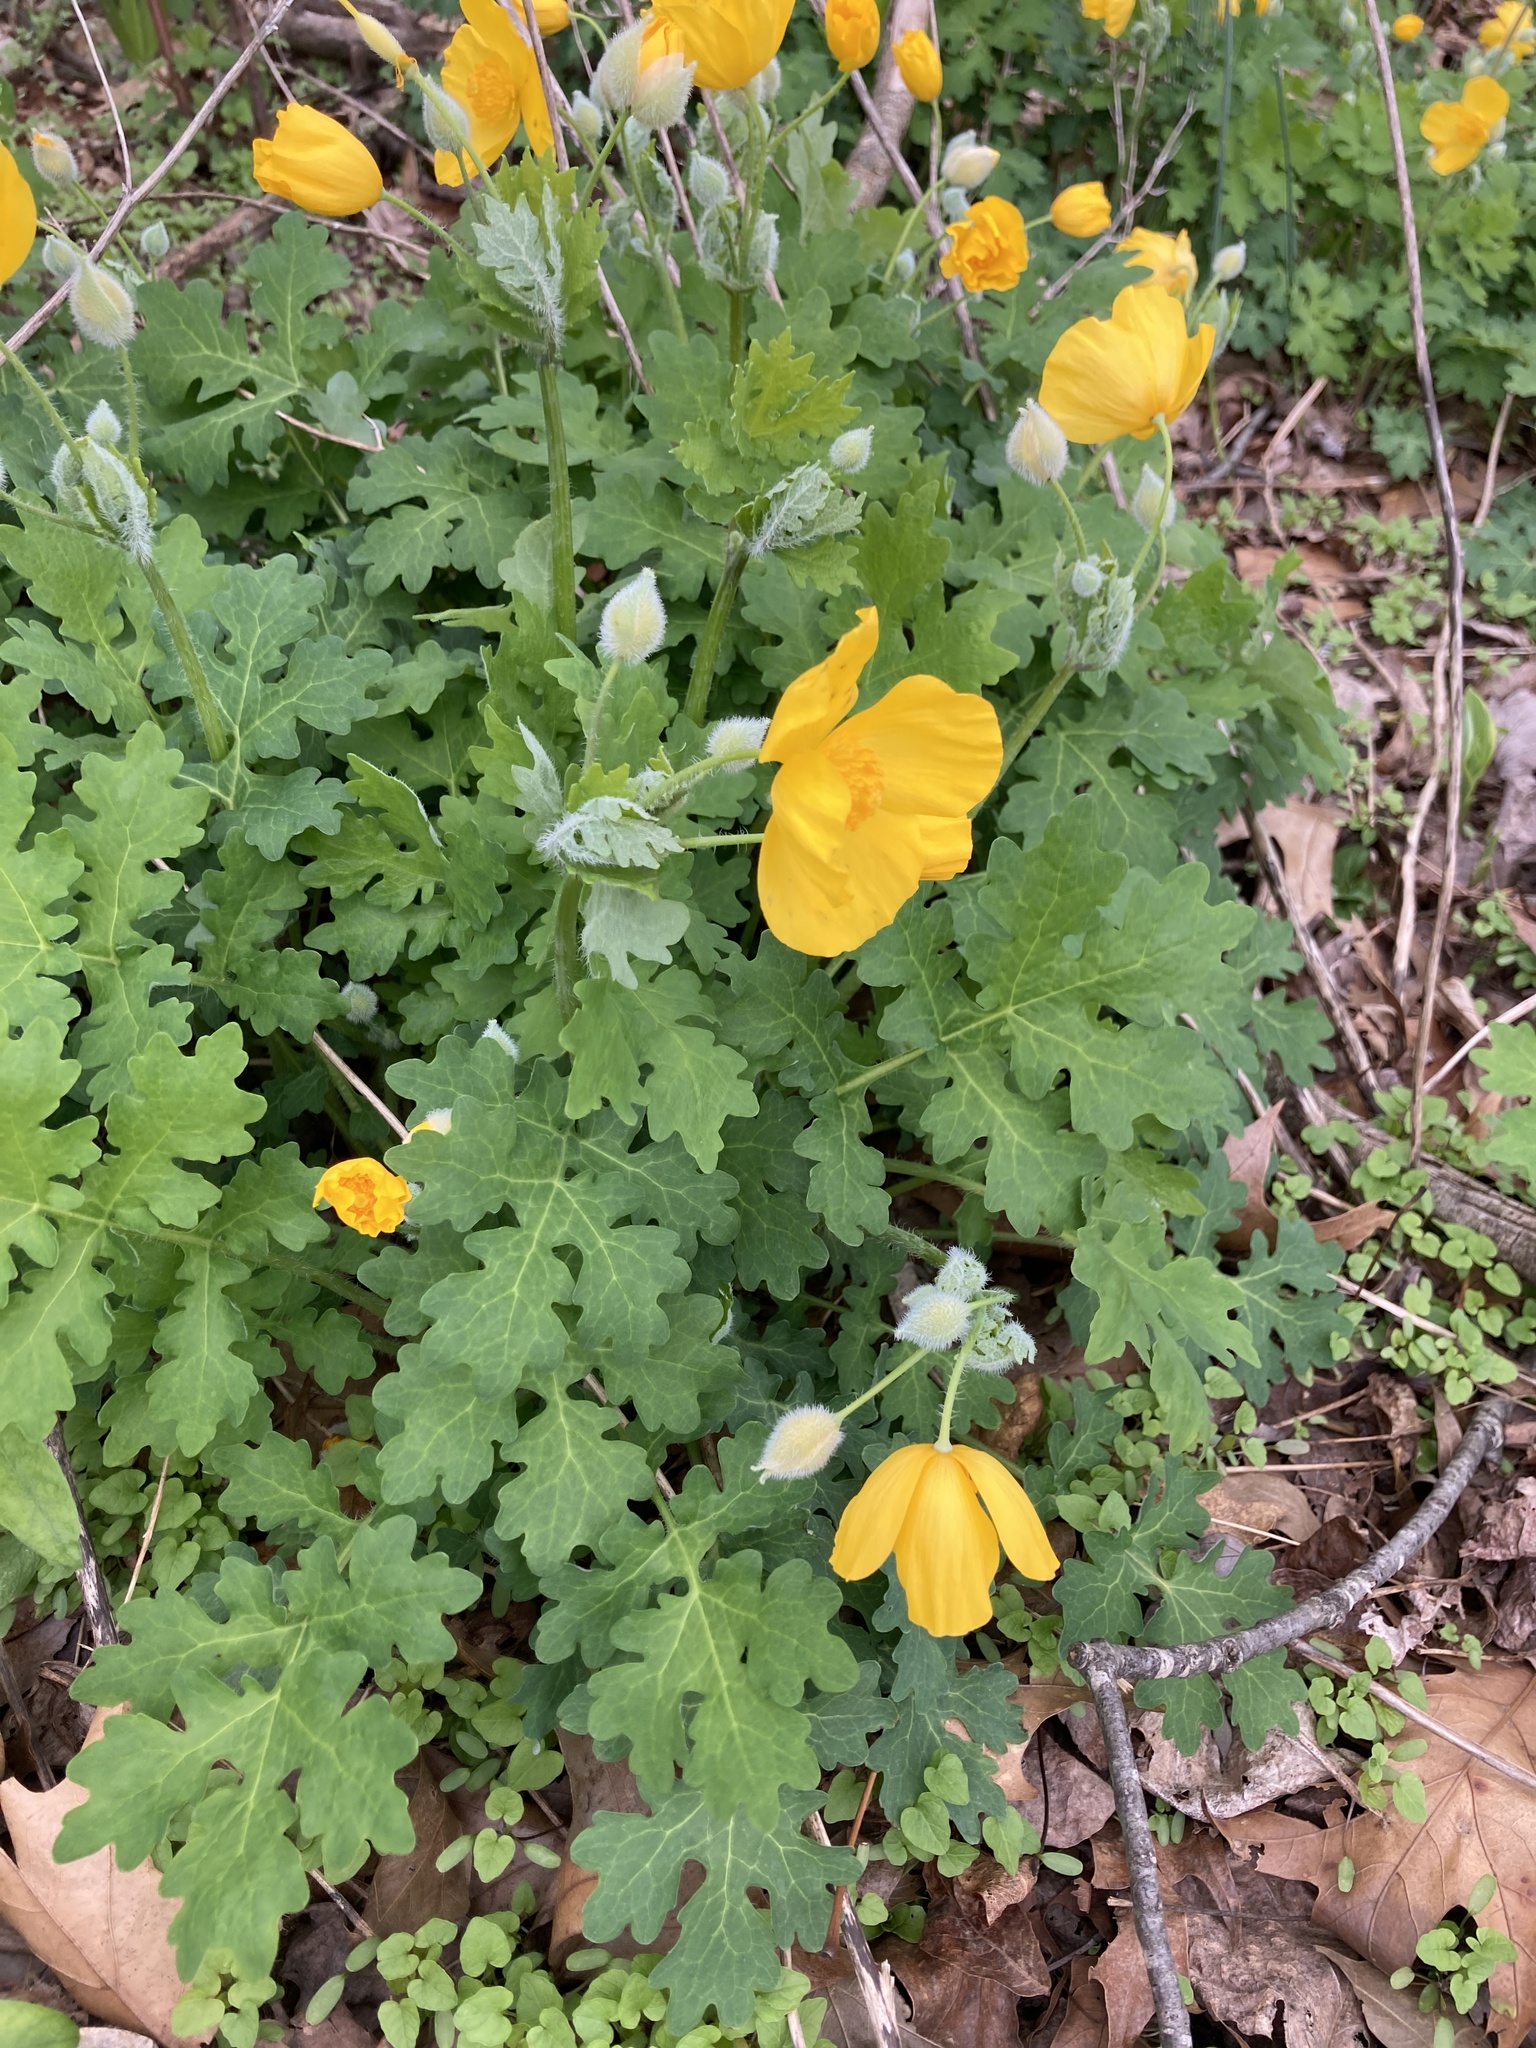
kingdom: Plantae
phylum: Tracheophyta
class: Magnoliopsida
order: Ranunculales
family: Papaveraceae
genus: Stylophorum
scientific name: Stylophorum diphyllum
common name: Celandine poppy
